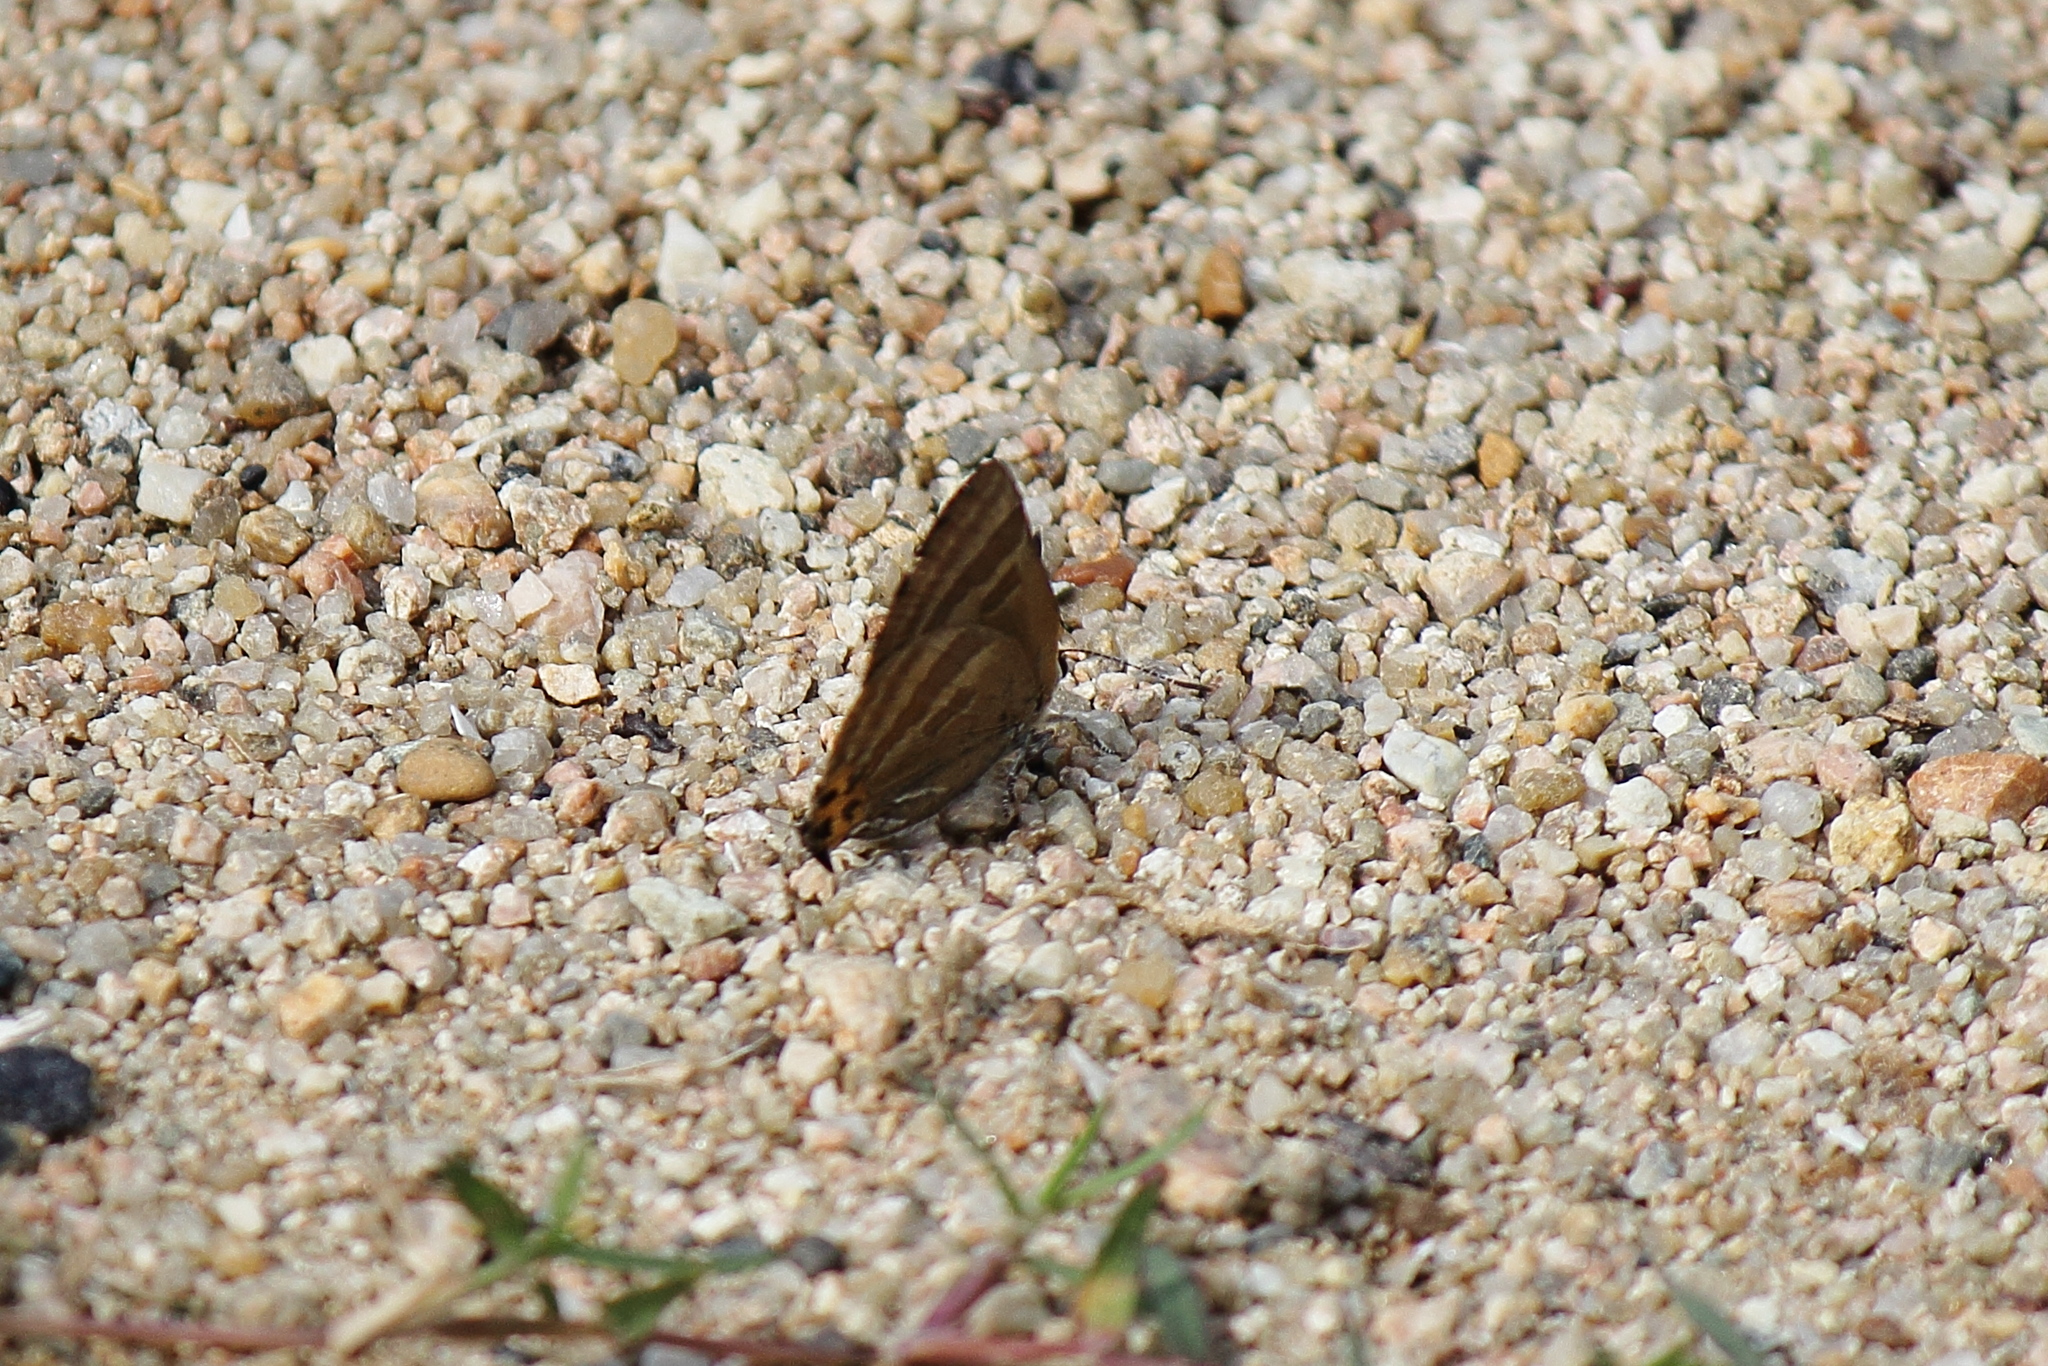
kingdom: Animalia
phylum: Arthropoda
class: Insecta
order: Lepidoptera
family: Lycaenidae
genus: Rapala
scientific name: Rapala arata
